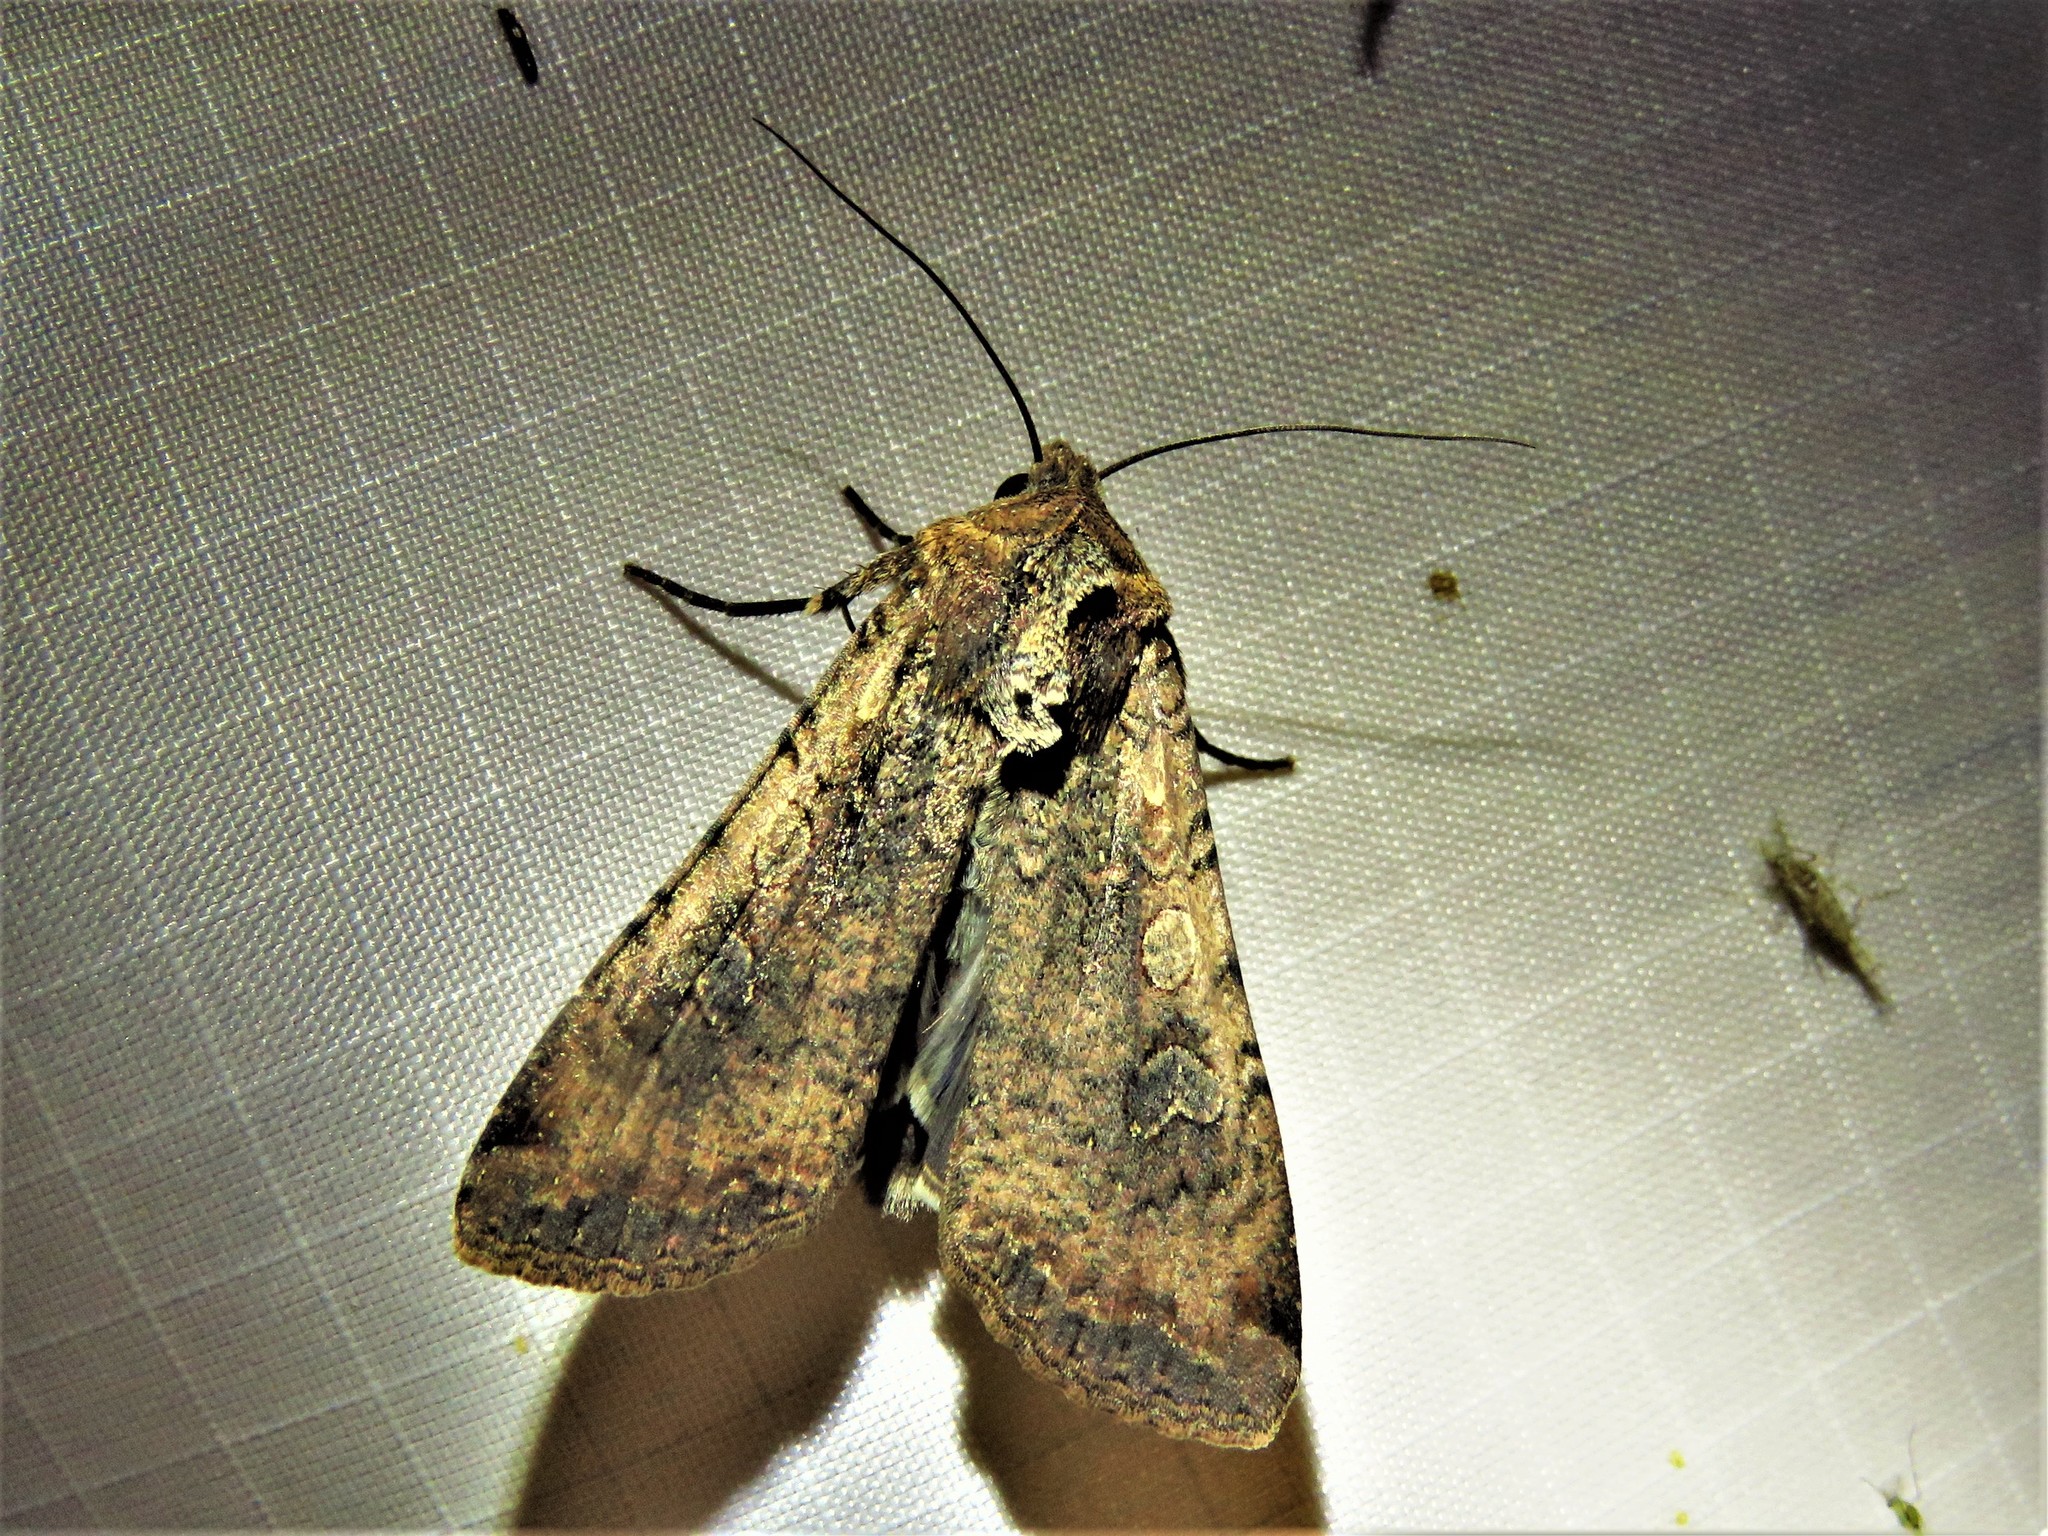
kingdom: Animalia
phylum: Arthropoda
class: Insecta
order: Lepidoptera
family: Noctuidae
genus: Peridroma
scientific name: Peridroma saucia
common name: Pearly underwing
